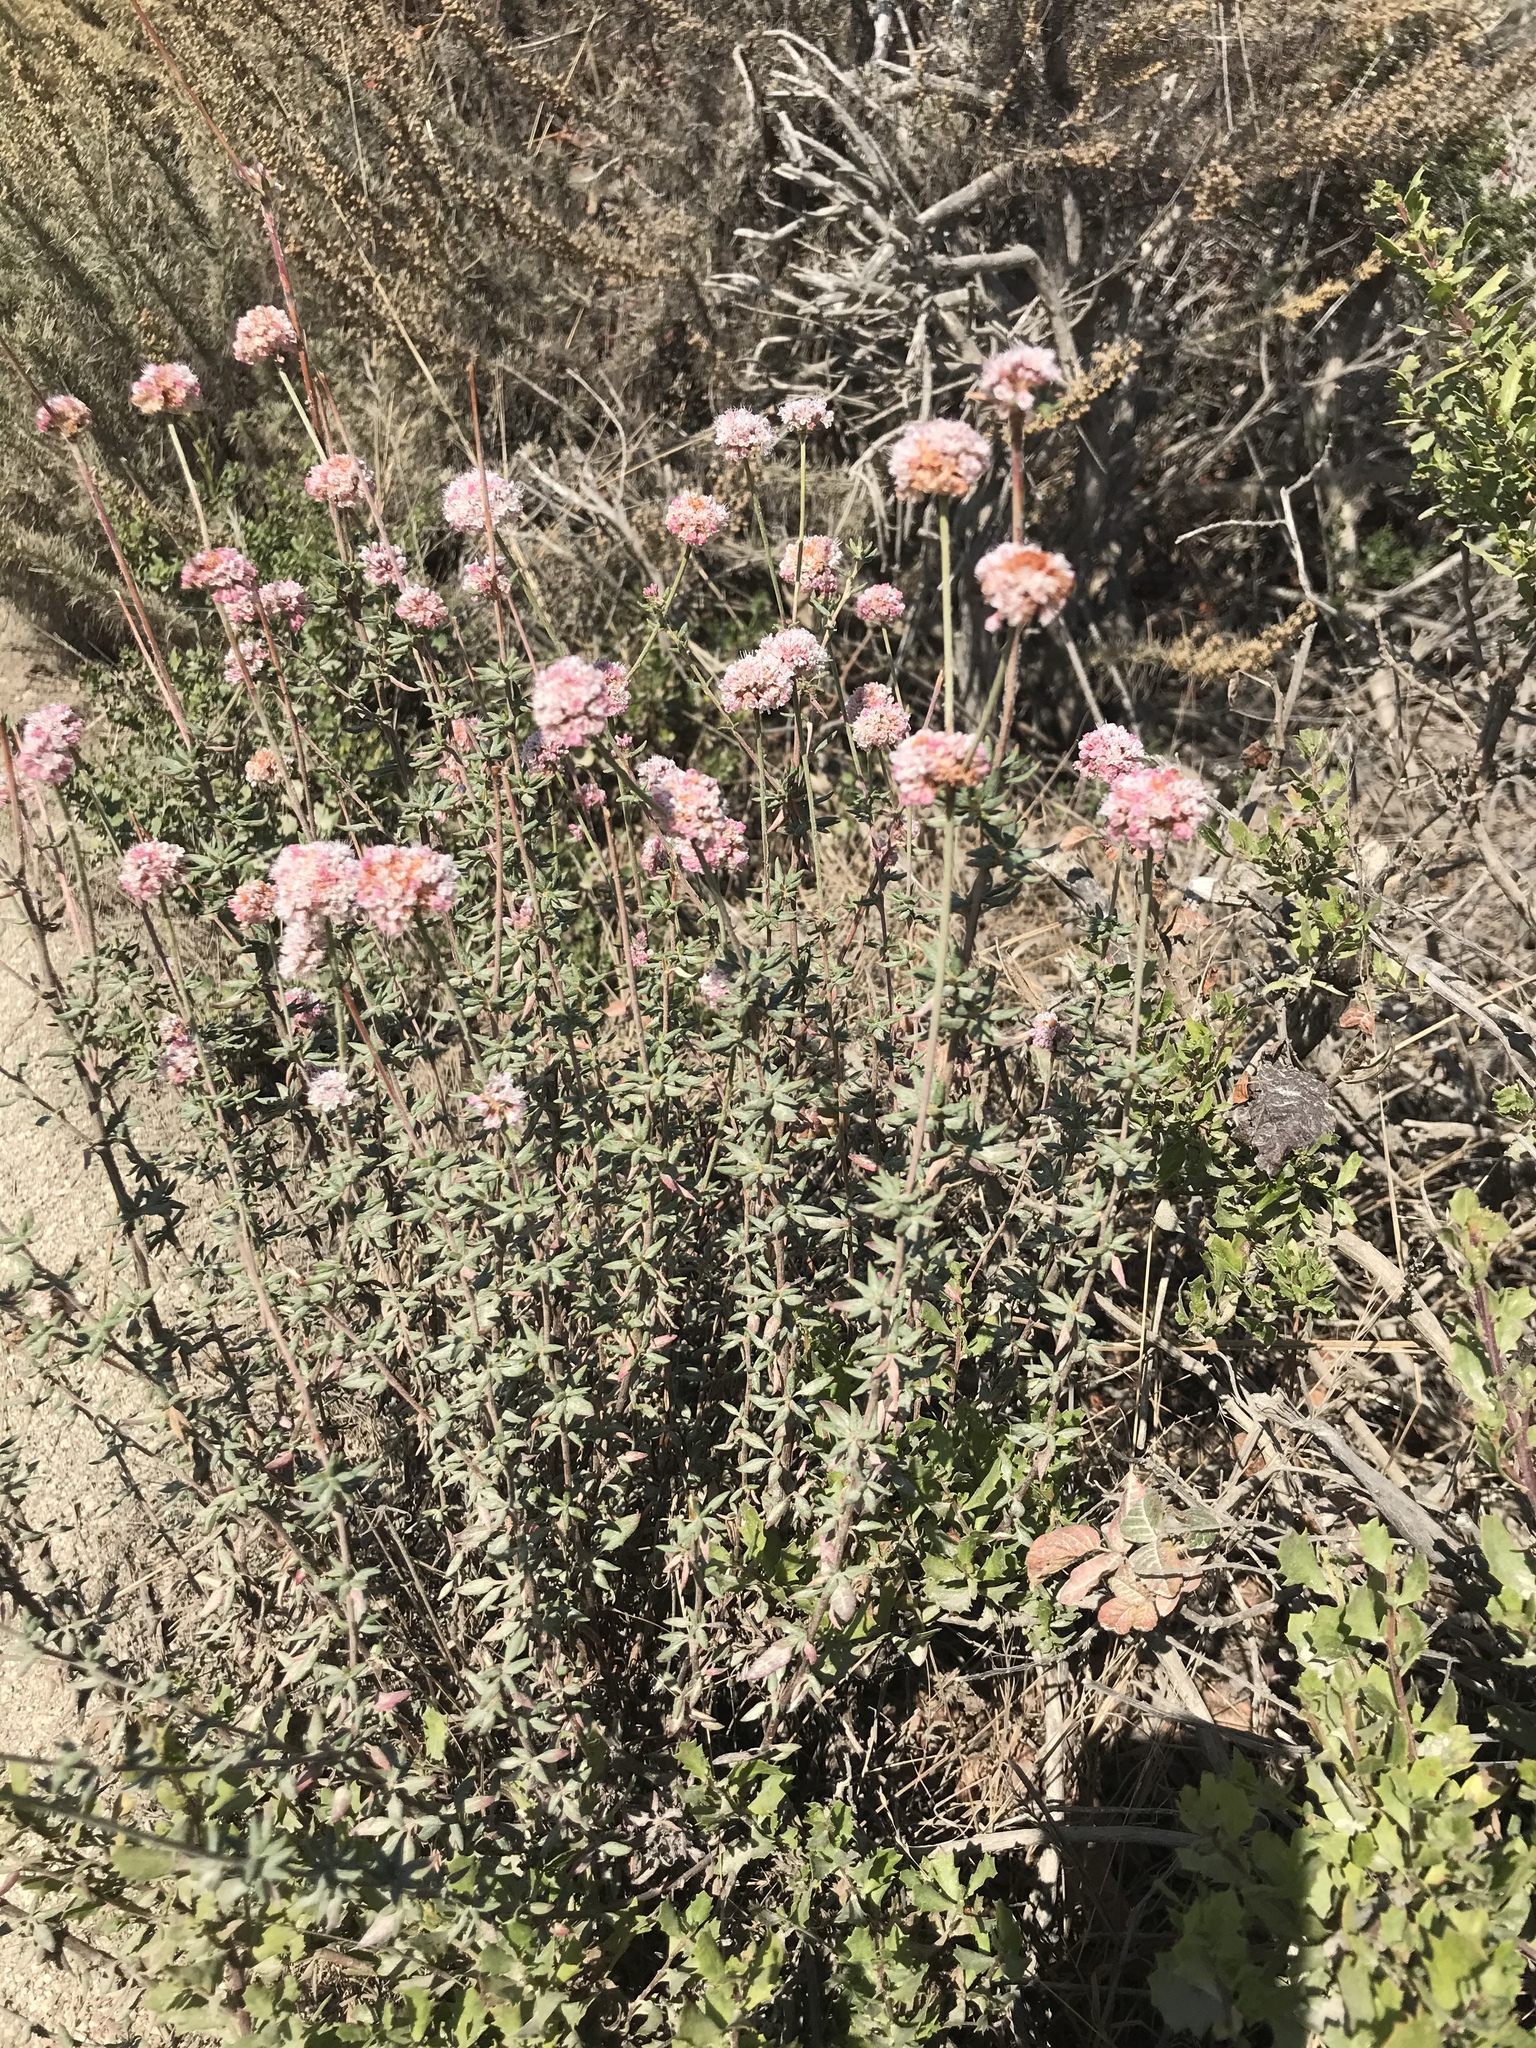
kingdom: Plantae
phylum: Tracheophyta
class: Magnoliopsida
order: Caryophyllales
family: Polygonaceae
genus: Eriogonum
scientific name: Eriogonum parvifolium
